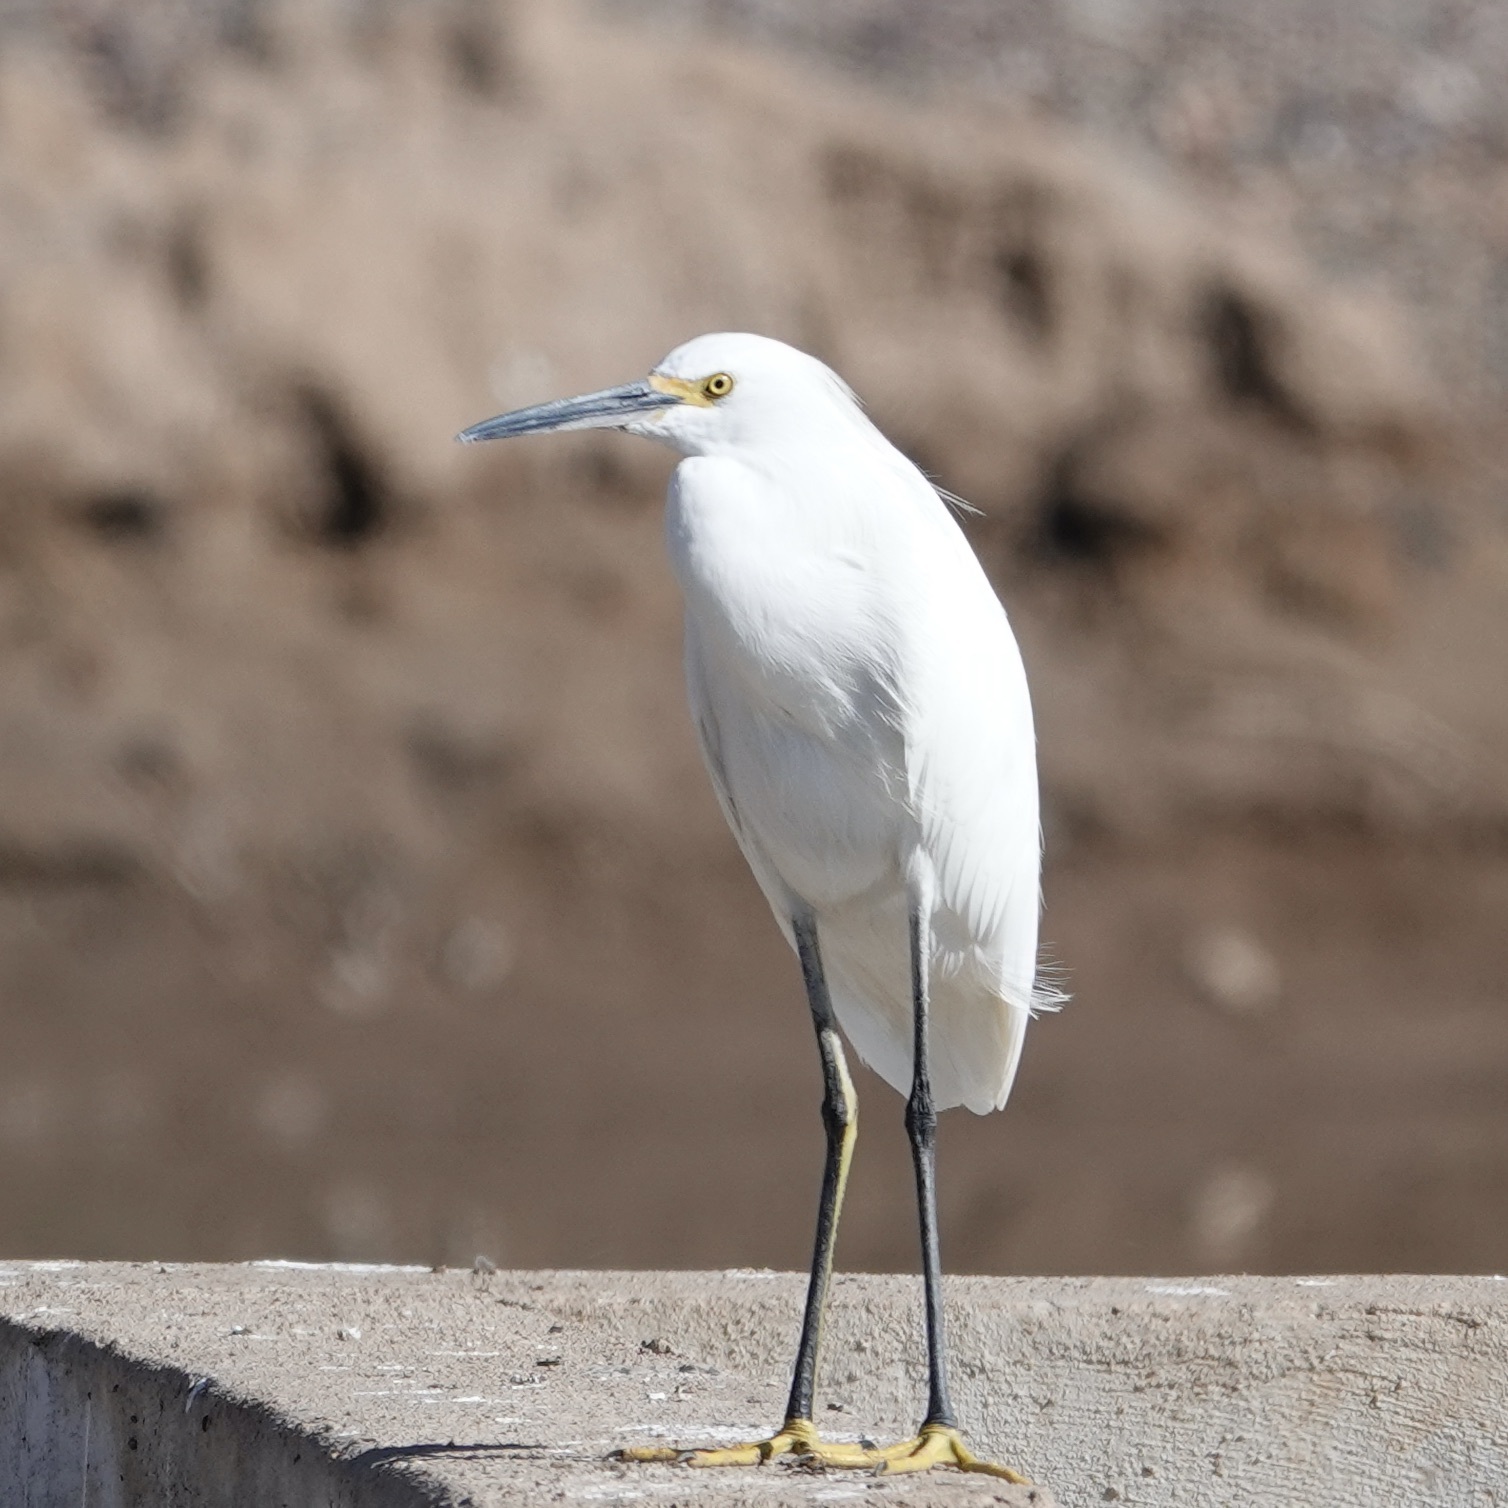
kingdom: Animalia
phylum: Chordata
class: Aves
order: Pelecaniformes
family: Ardeidae
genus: Egretta
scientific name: Egretta thula
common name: Snowy egret
